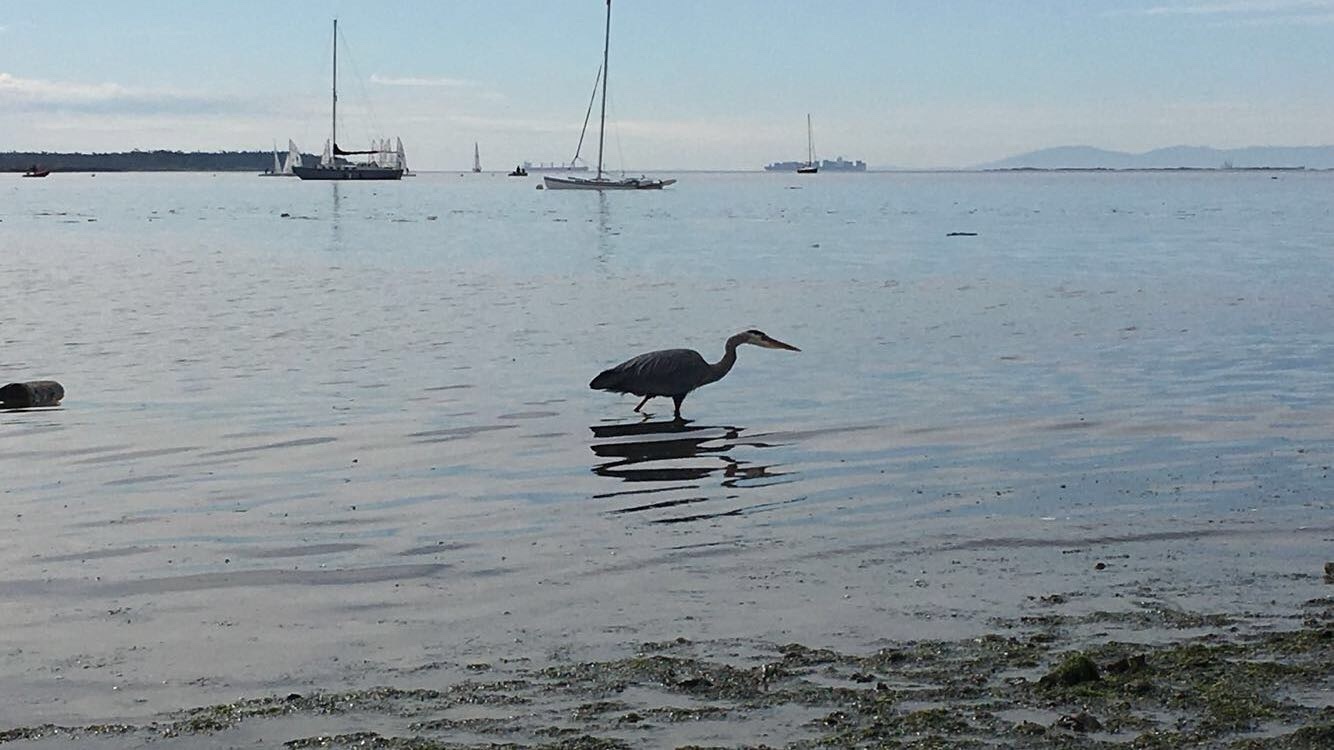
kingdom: Animalia
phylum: Chordata
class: Aves
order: Pelecaniformes
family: Ardeidae
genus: Ardea
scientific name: Ardea herodias
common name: Great blue heron
